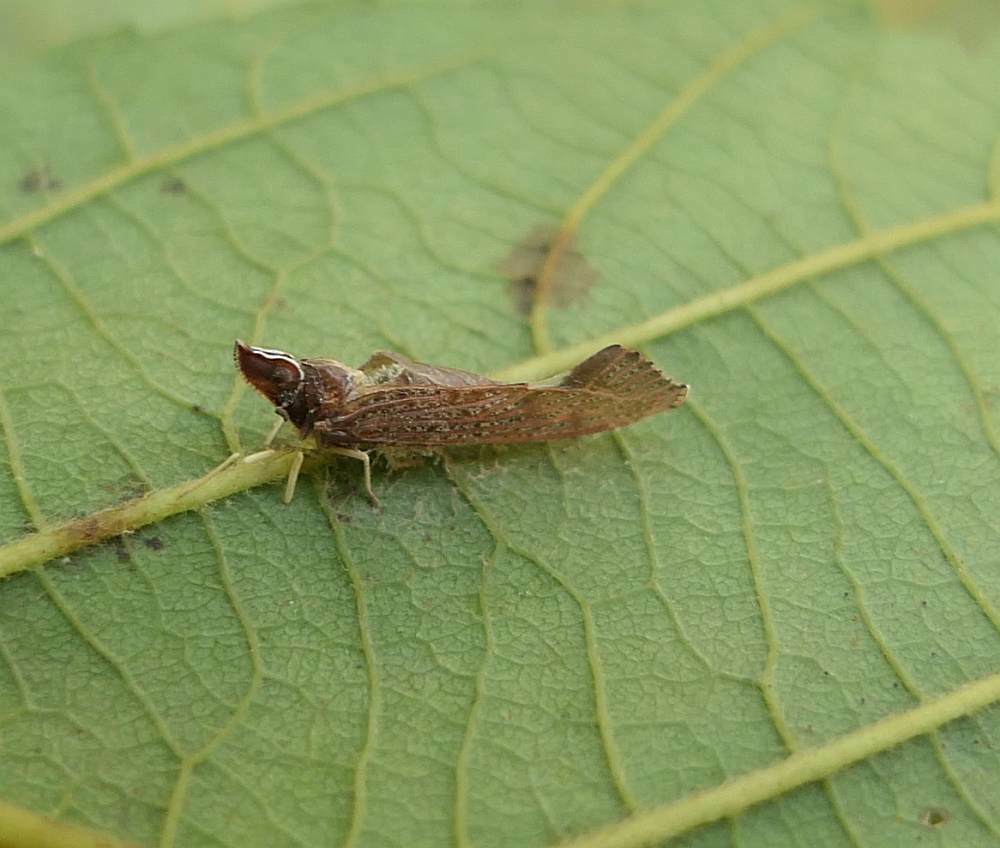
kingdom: Animalia
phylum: Arthropoda
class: Insecta
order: Hemiptera
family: Derbidae
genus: Apache
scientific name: Apache degeeri
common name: Red-fanned planthopper
